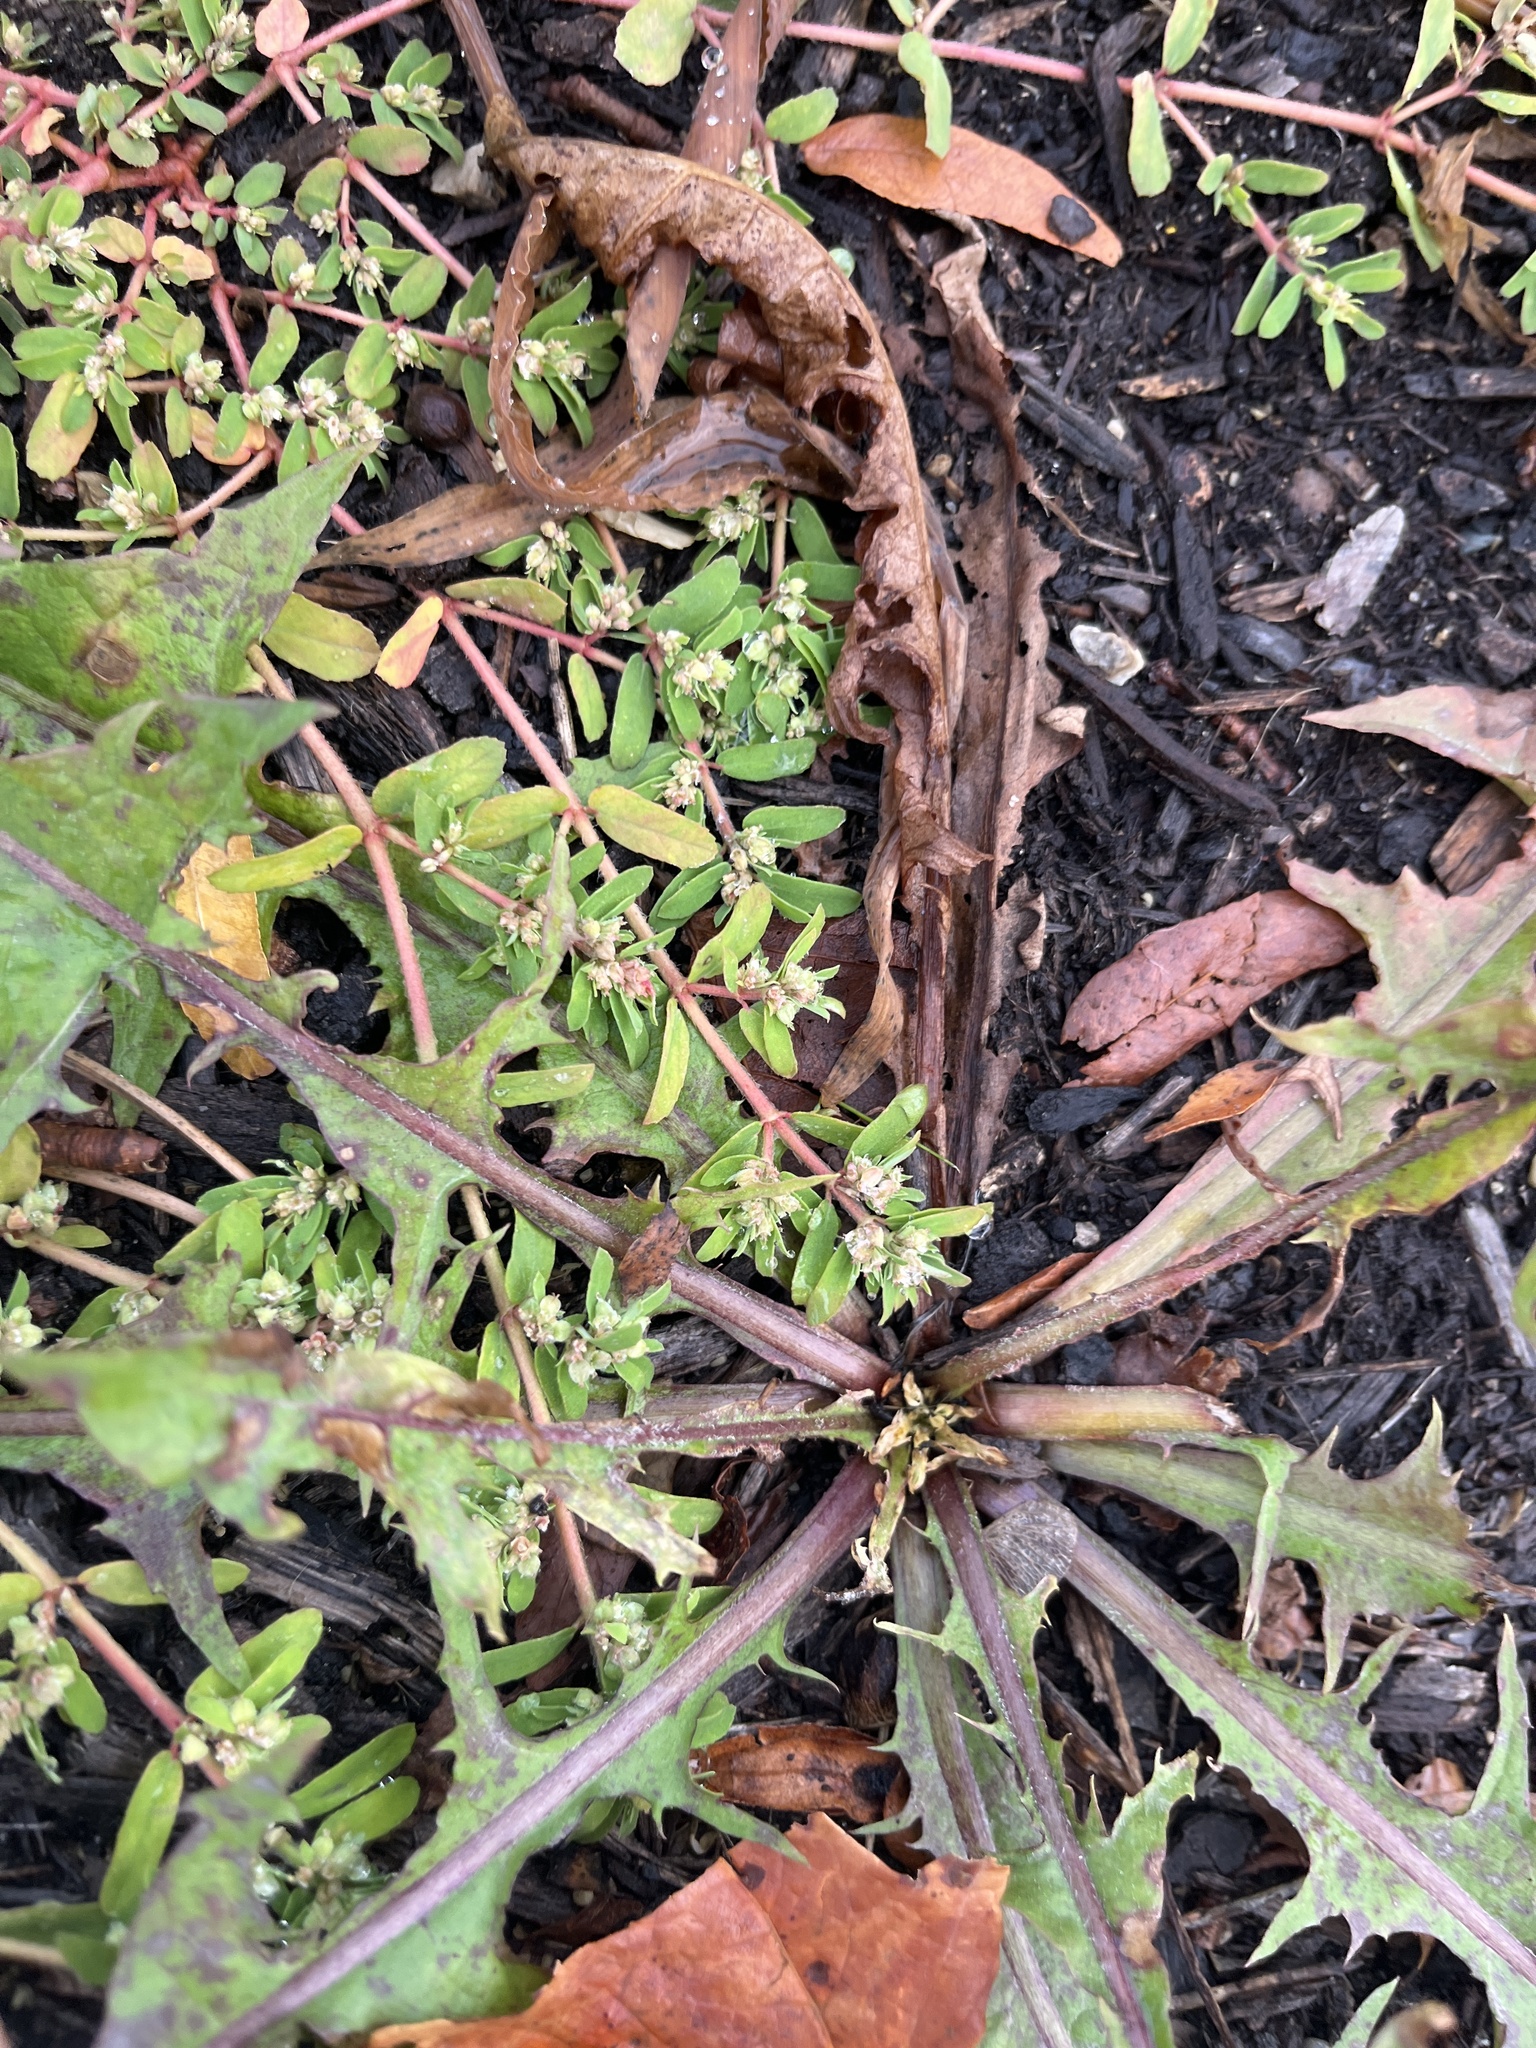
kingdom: Plantae
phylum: Tracheophyta
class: Magnoliopsida
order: Malpighiales
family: Euphorbiaceae
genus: Euphorbia
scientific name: Euphorbia maculata
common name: Spotted spurge
